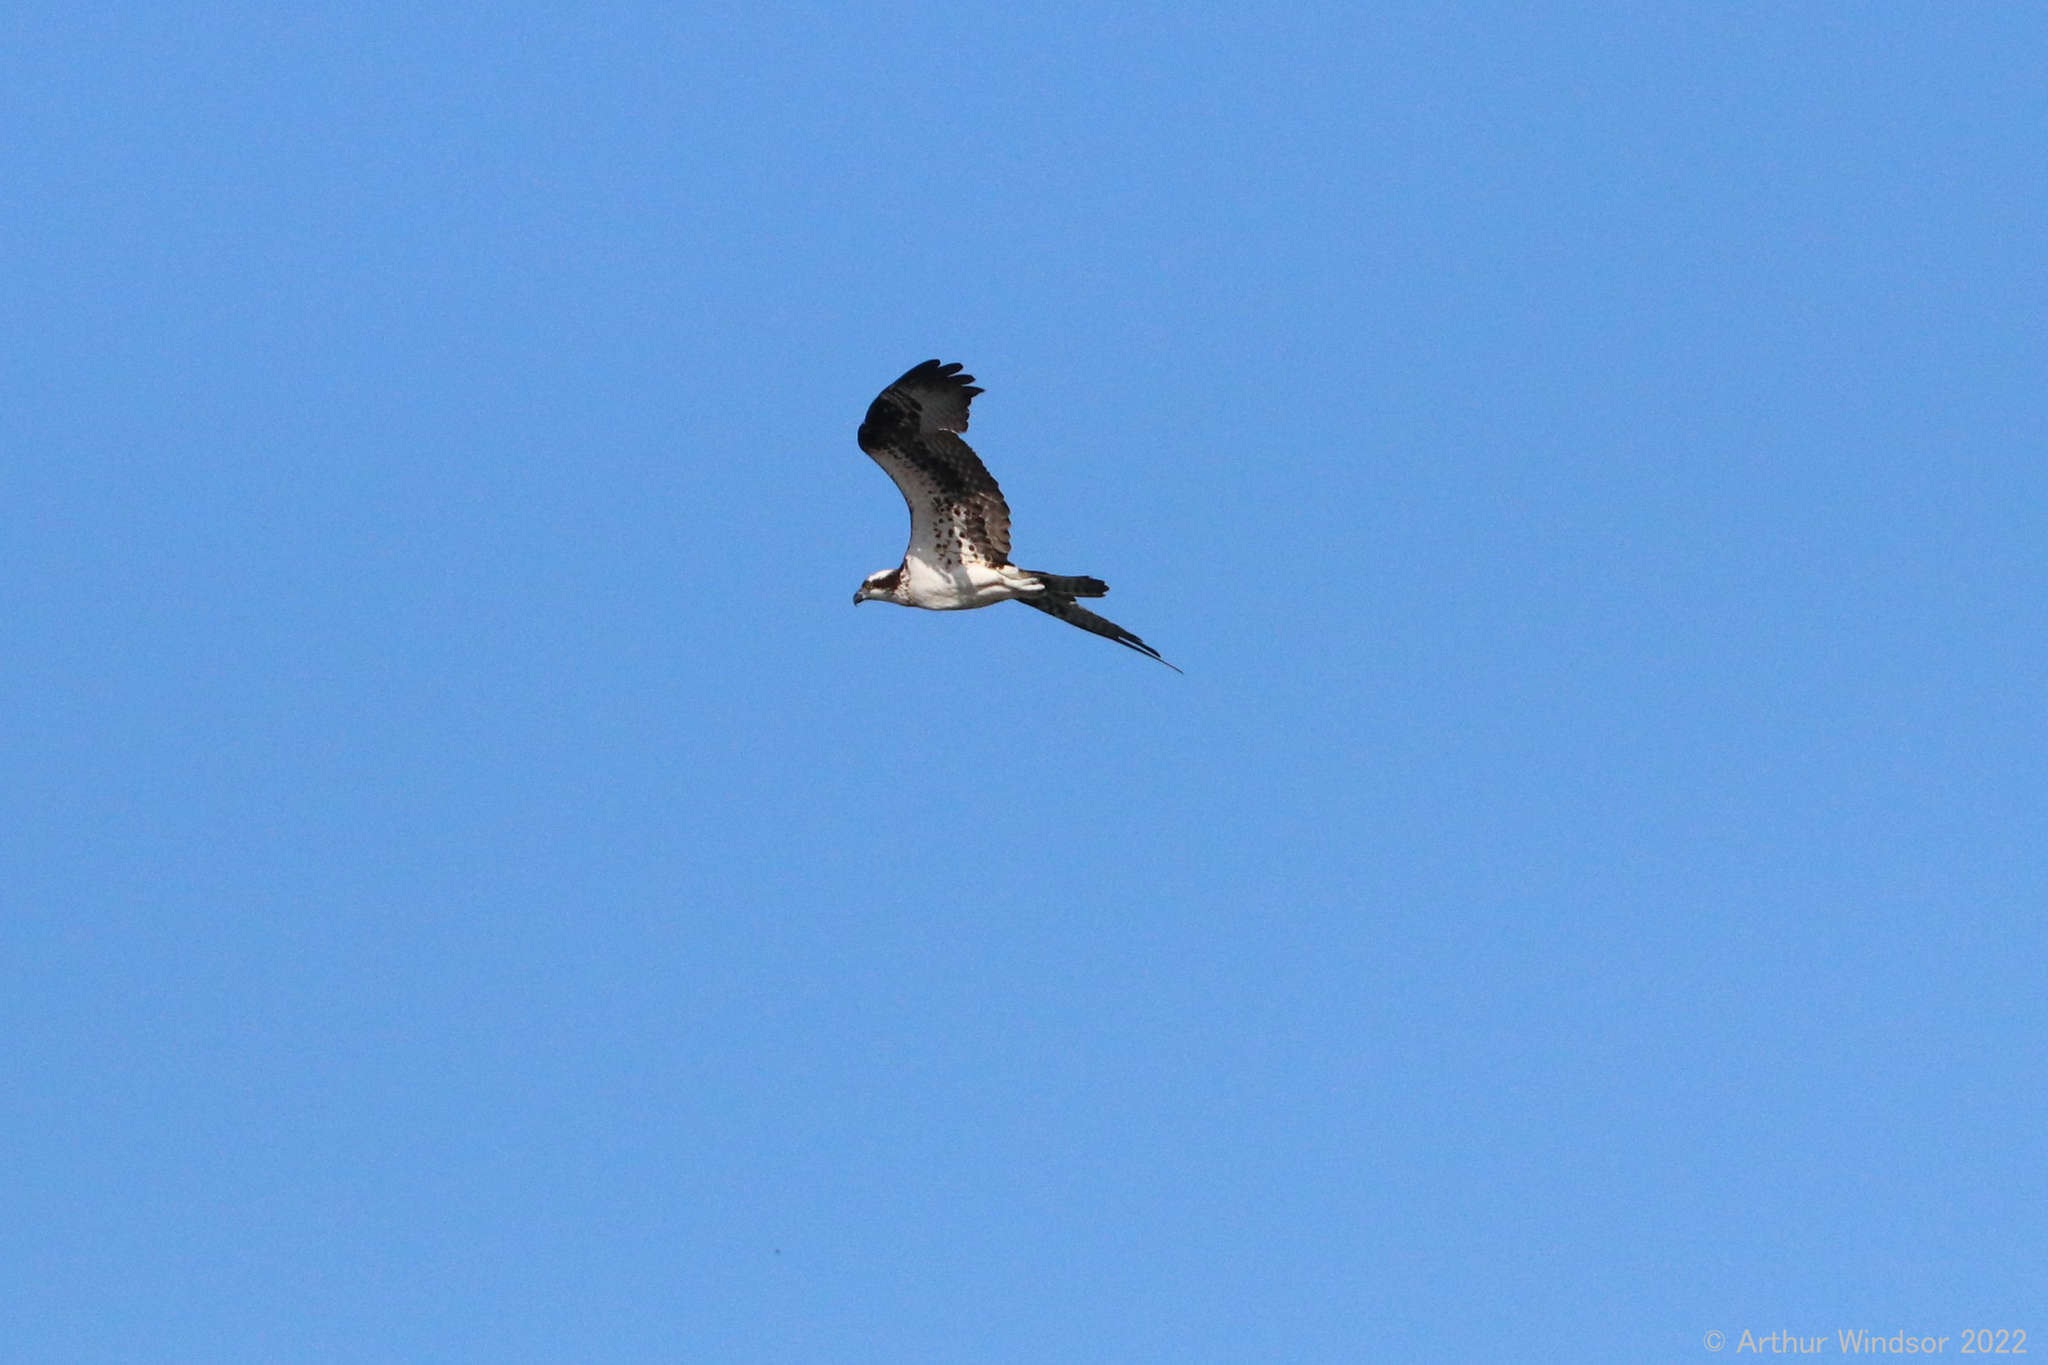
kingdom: Animalia
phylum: Chordata
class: Aves
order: Accipitriformes
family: Pandionidae
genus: Pandion
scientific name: Pandion haliaetus
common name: Osprey
